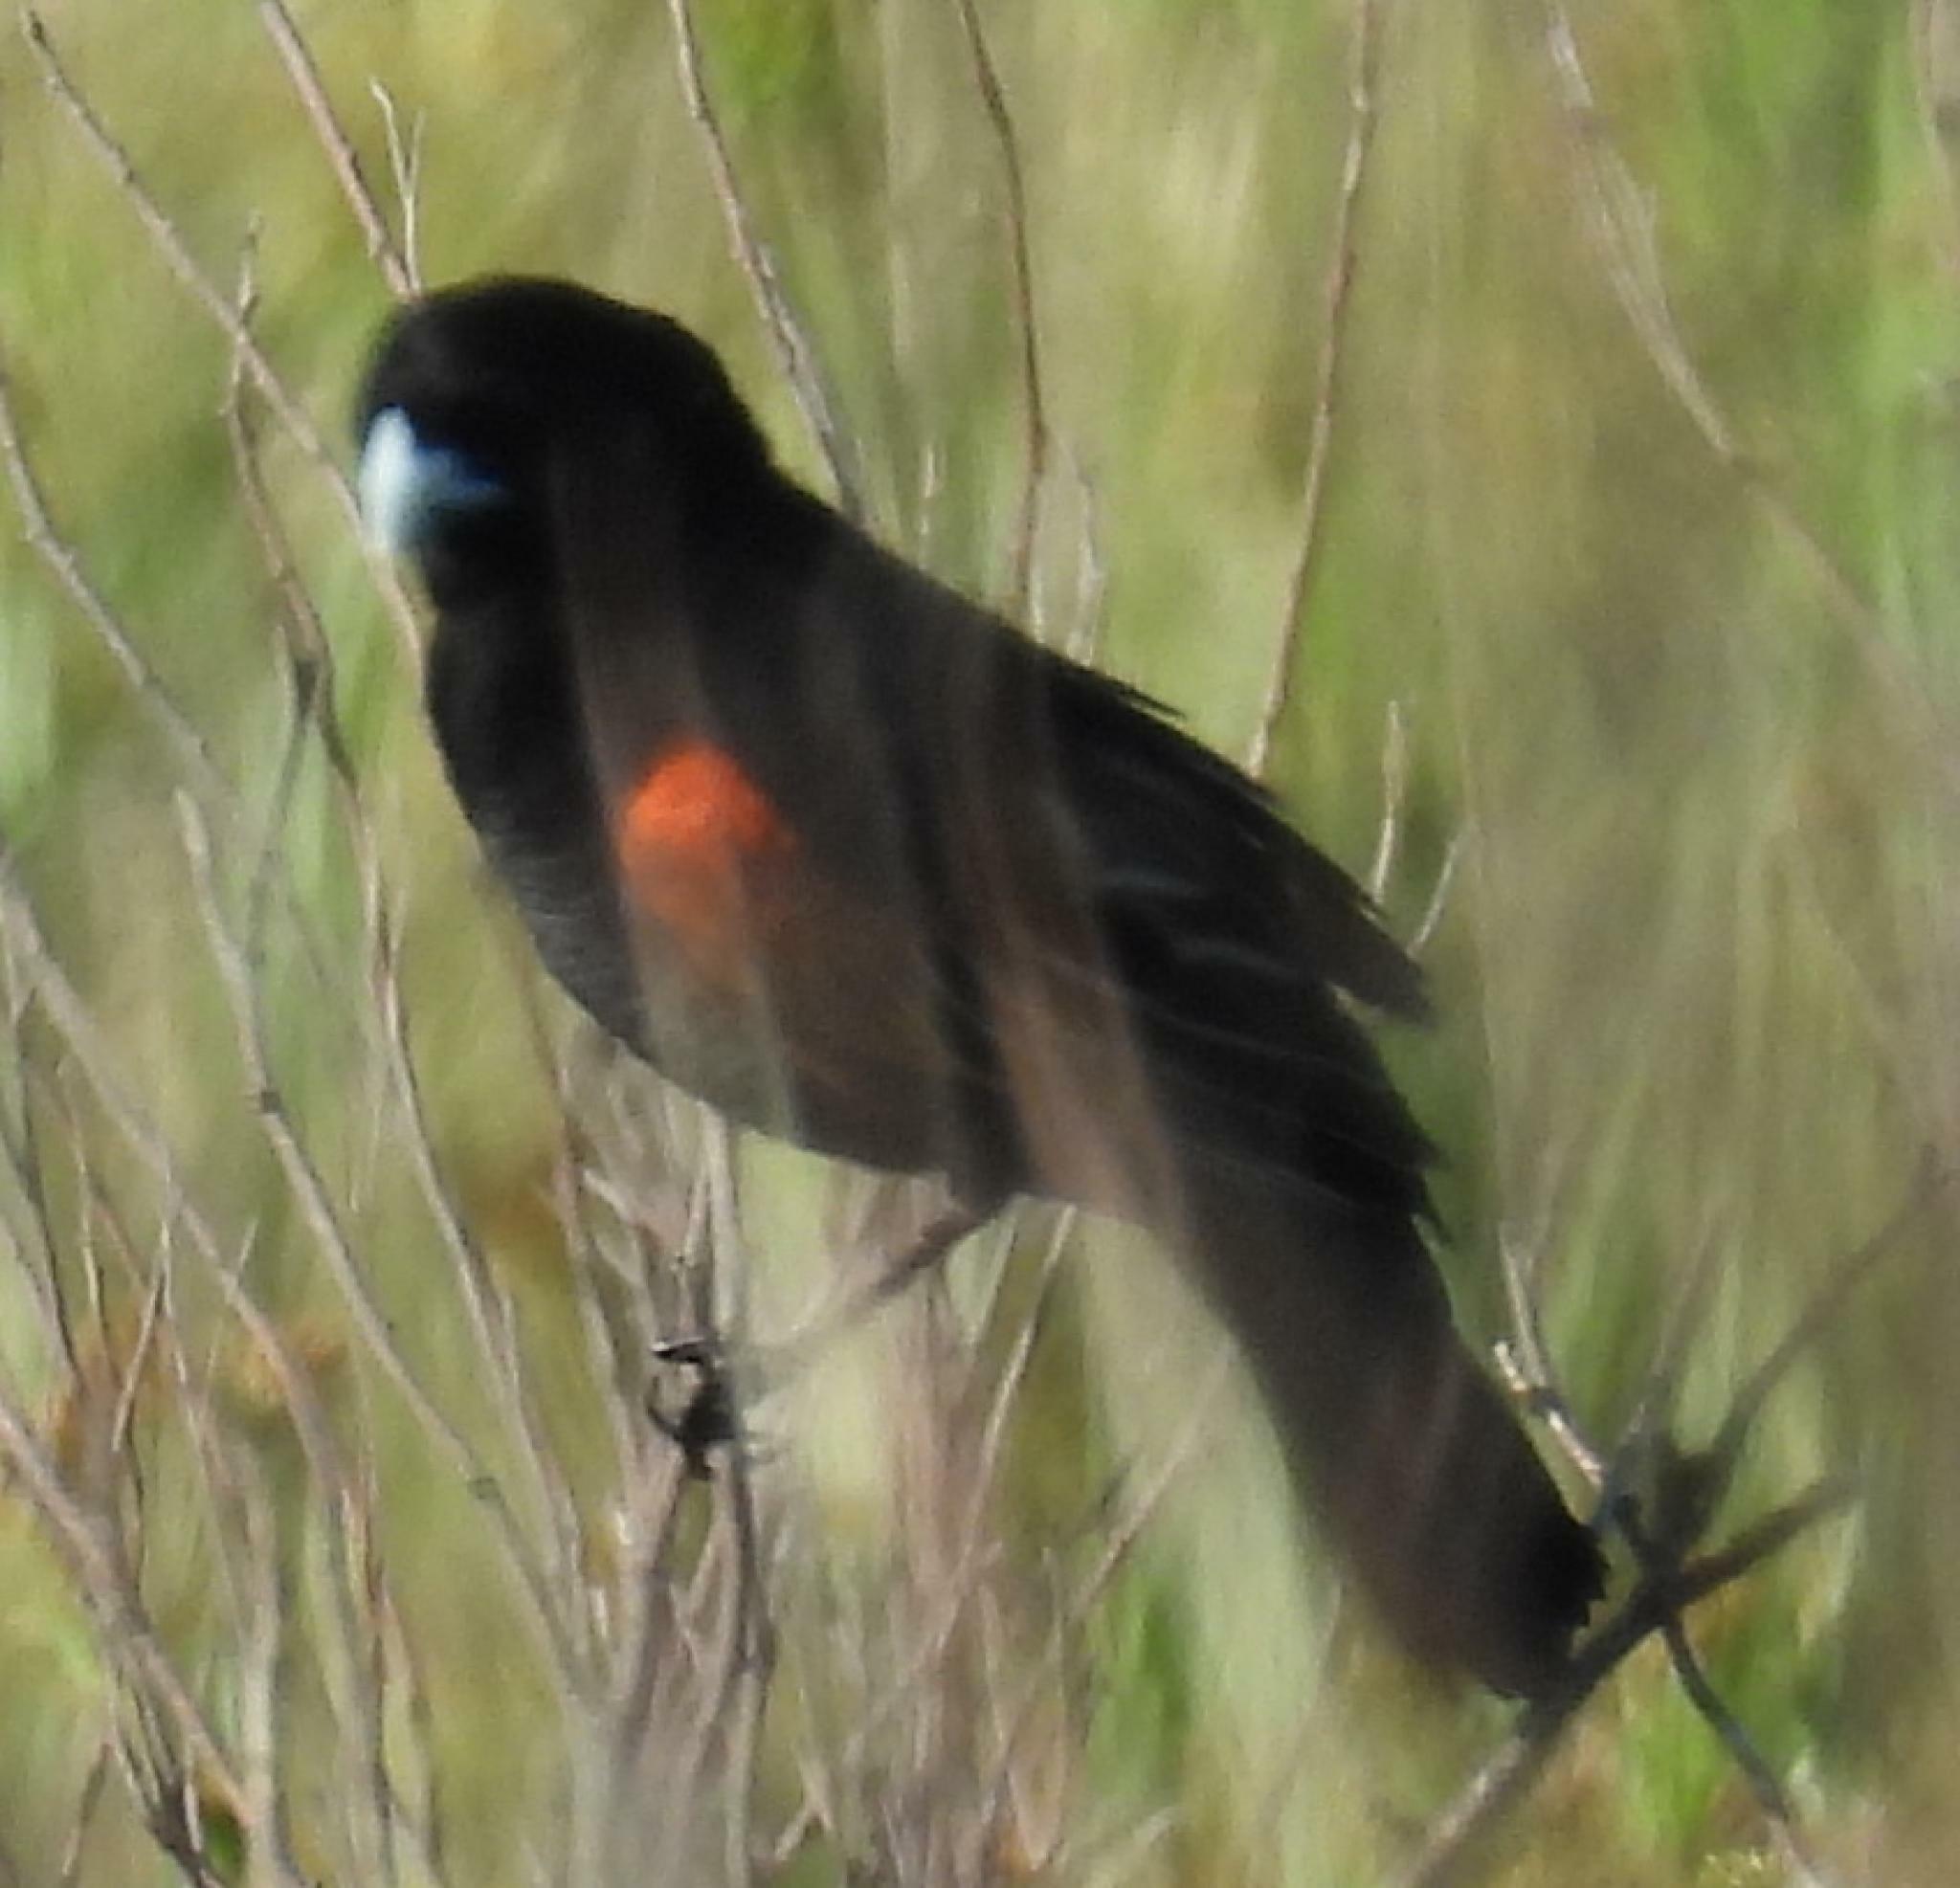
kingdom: Animalia
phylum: Chordata
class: Aves
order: Passeriformes
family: Ploceidae
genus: Euplectes
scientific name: Euplectes axillaris
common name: Fan-tailed widowbird
